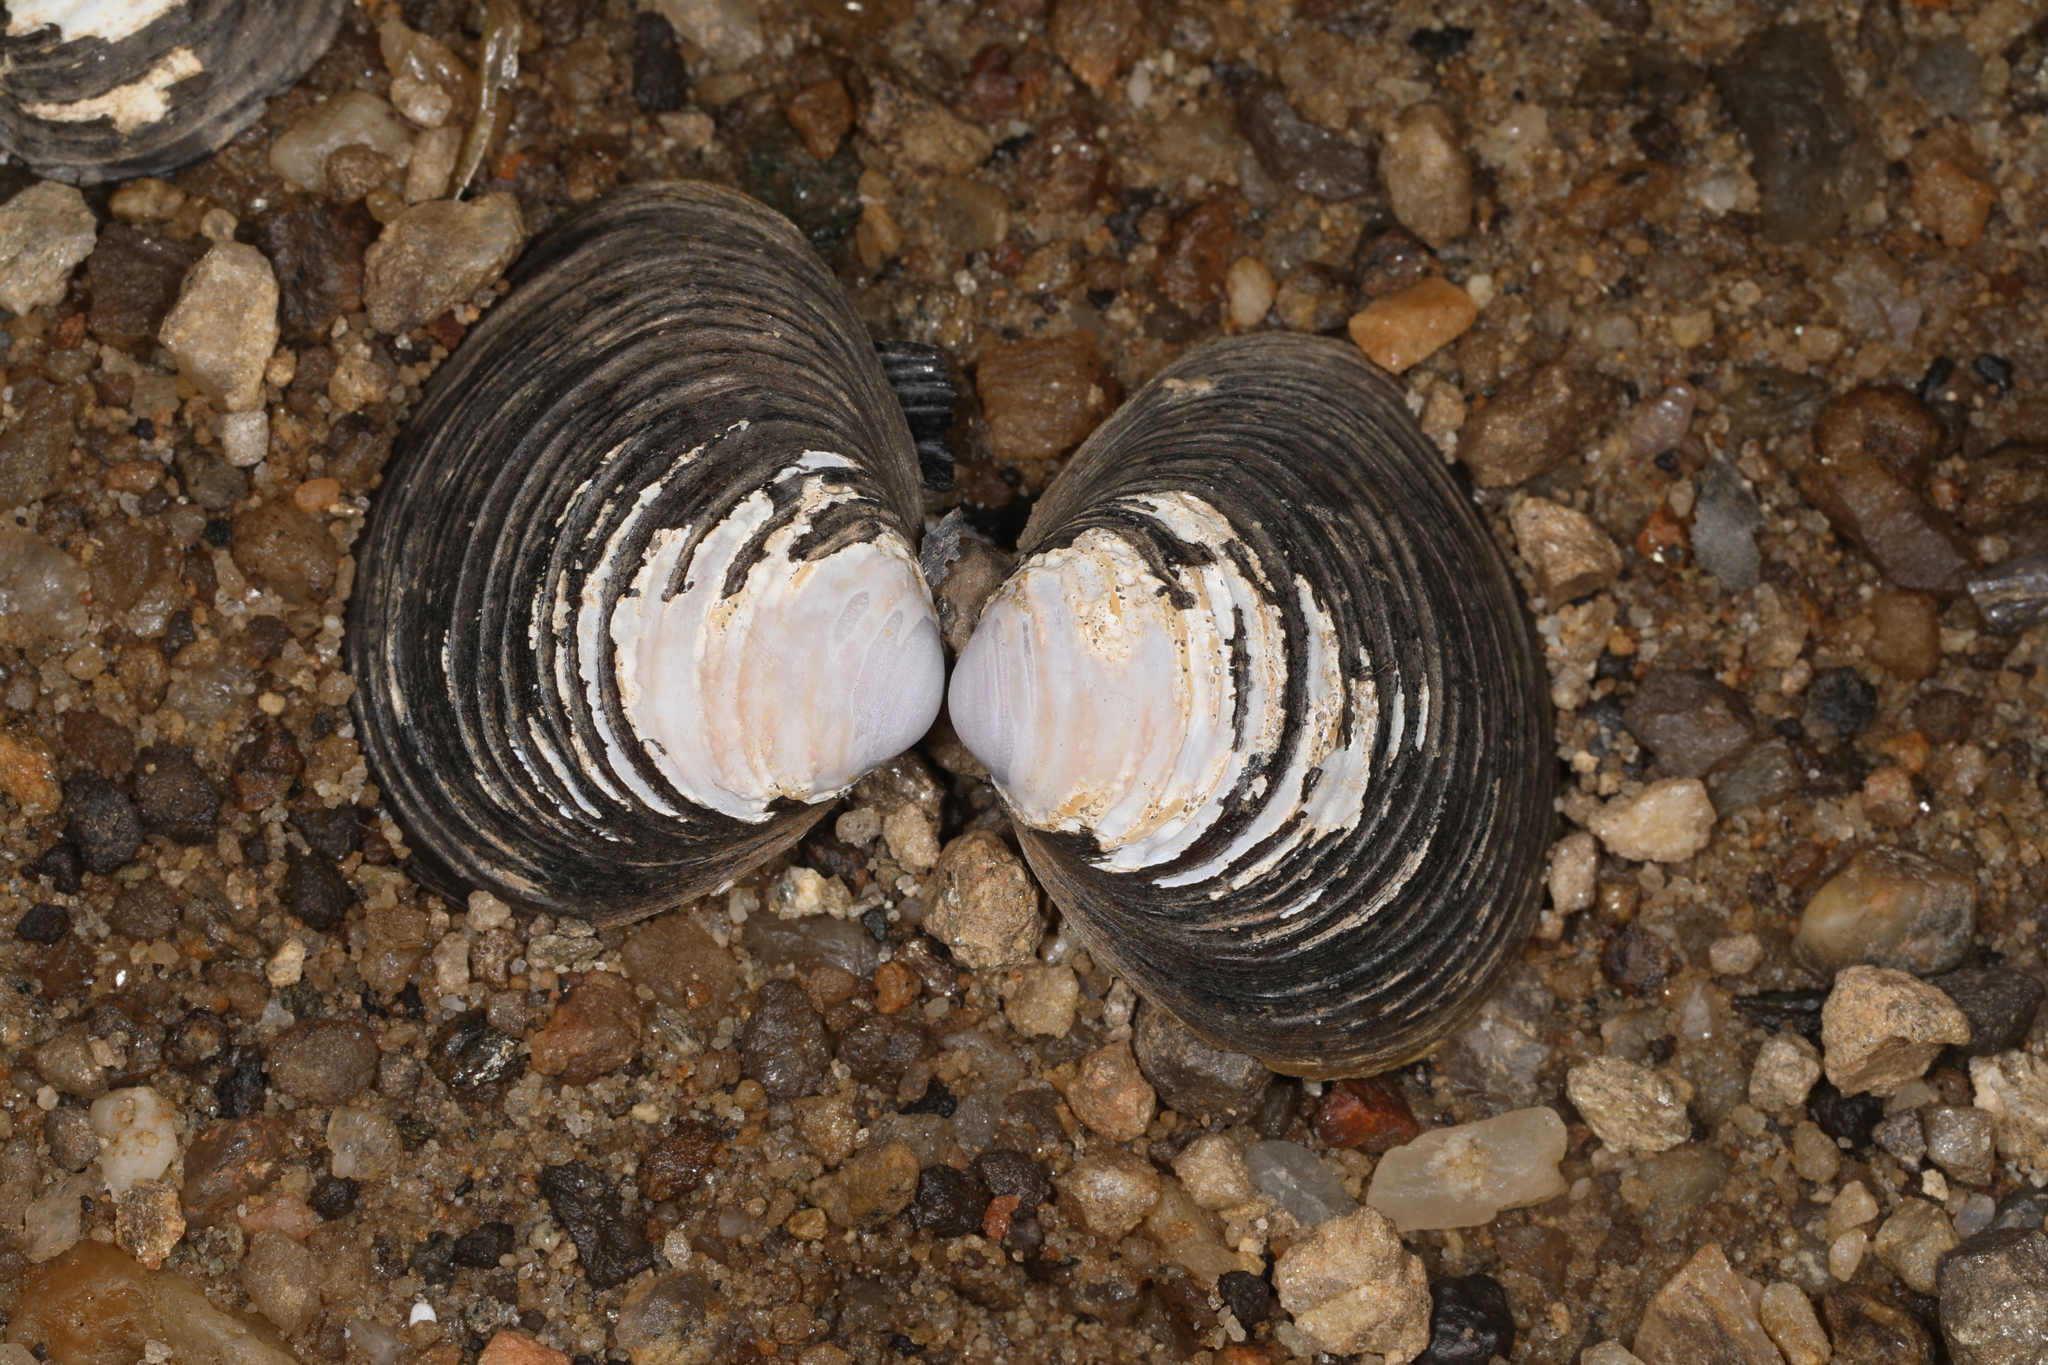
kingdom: Animalia
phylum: Mollusca
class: Bivalvia
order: Venerida
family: Cyrenidae
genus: Corbicula
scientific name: Corbicula fluminea
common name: Asian clam
